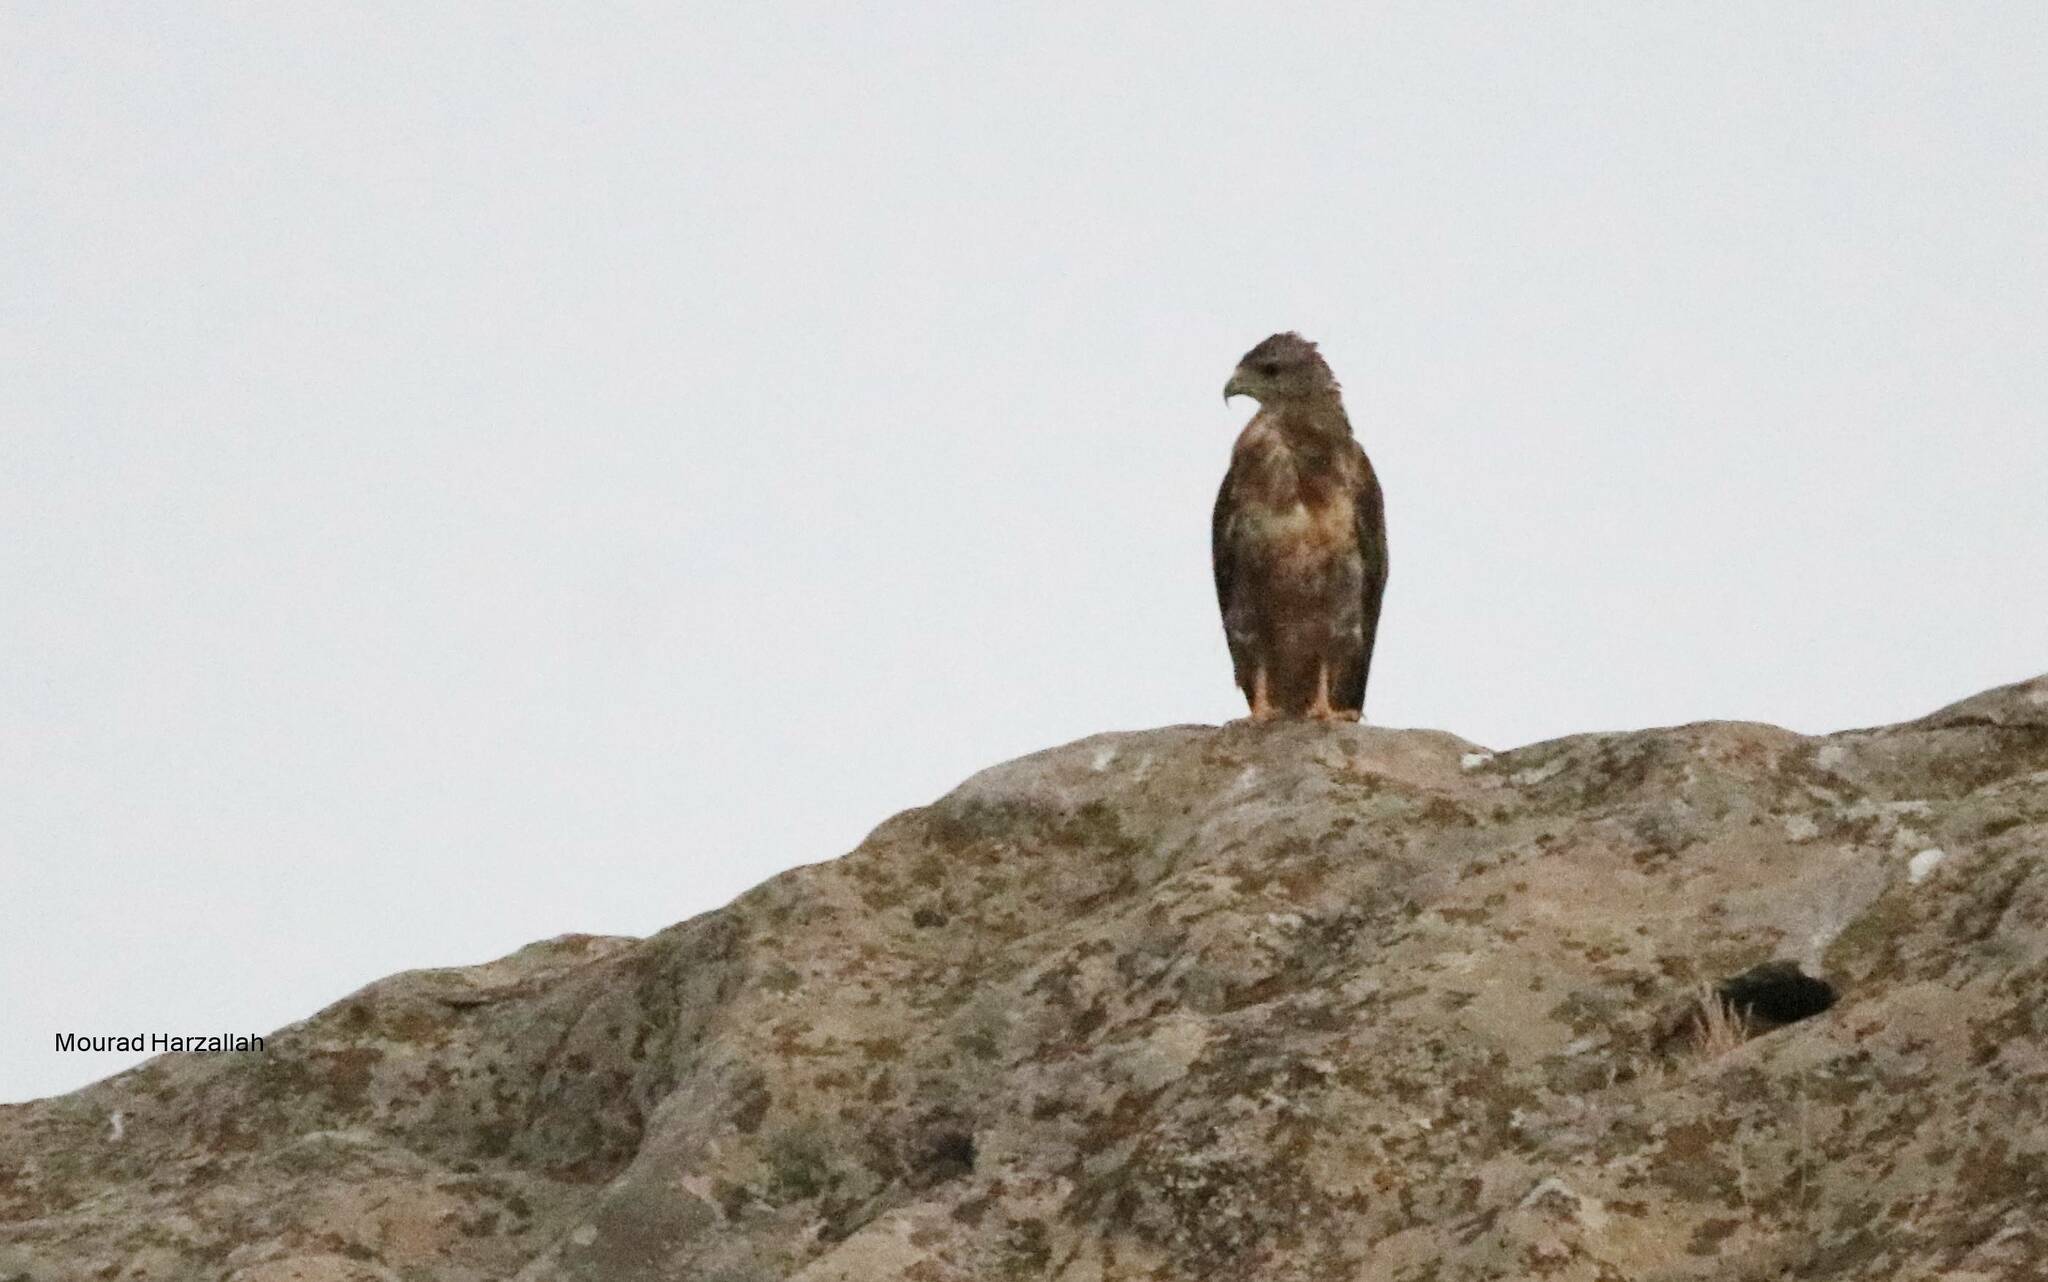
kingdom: Animalia
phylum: Chordata
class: Aves
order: Accipitriformes
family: Accipitridae
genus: Buteo
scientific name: Buteo rufinus
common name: Long-legged buzzard
